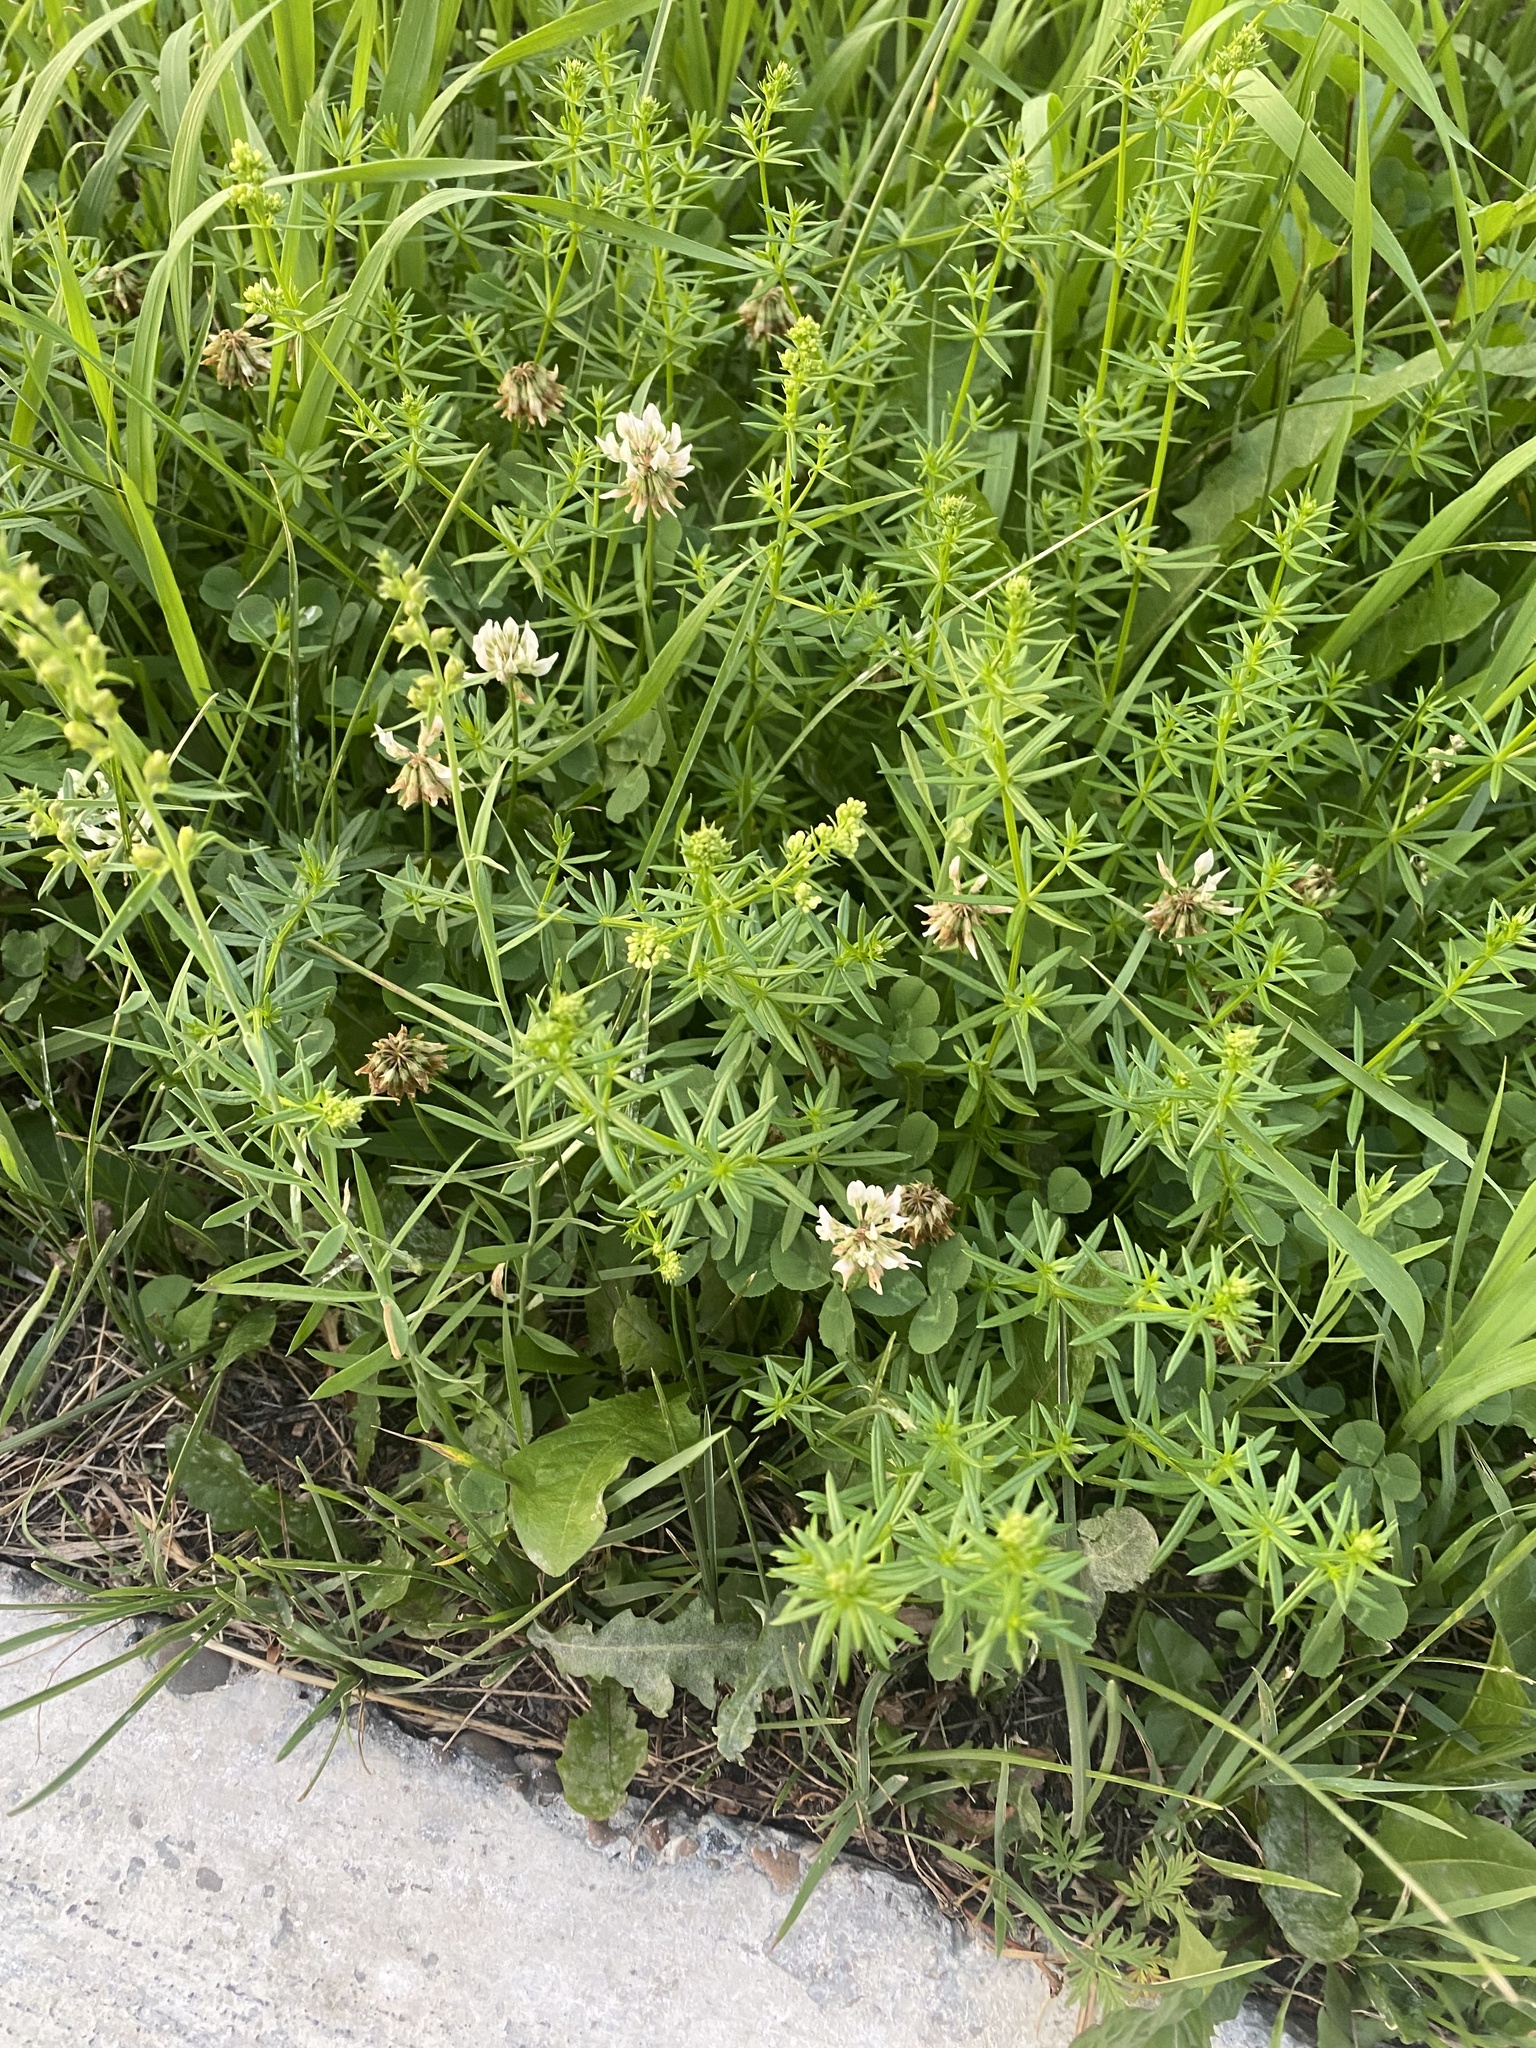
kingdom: Plantae
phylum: Tracheophyta
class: Magnoliopsida
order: Gentianales
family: Rubiaceae
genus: Galium
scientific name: Galium mollugo
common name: Hedge bedstraw
